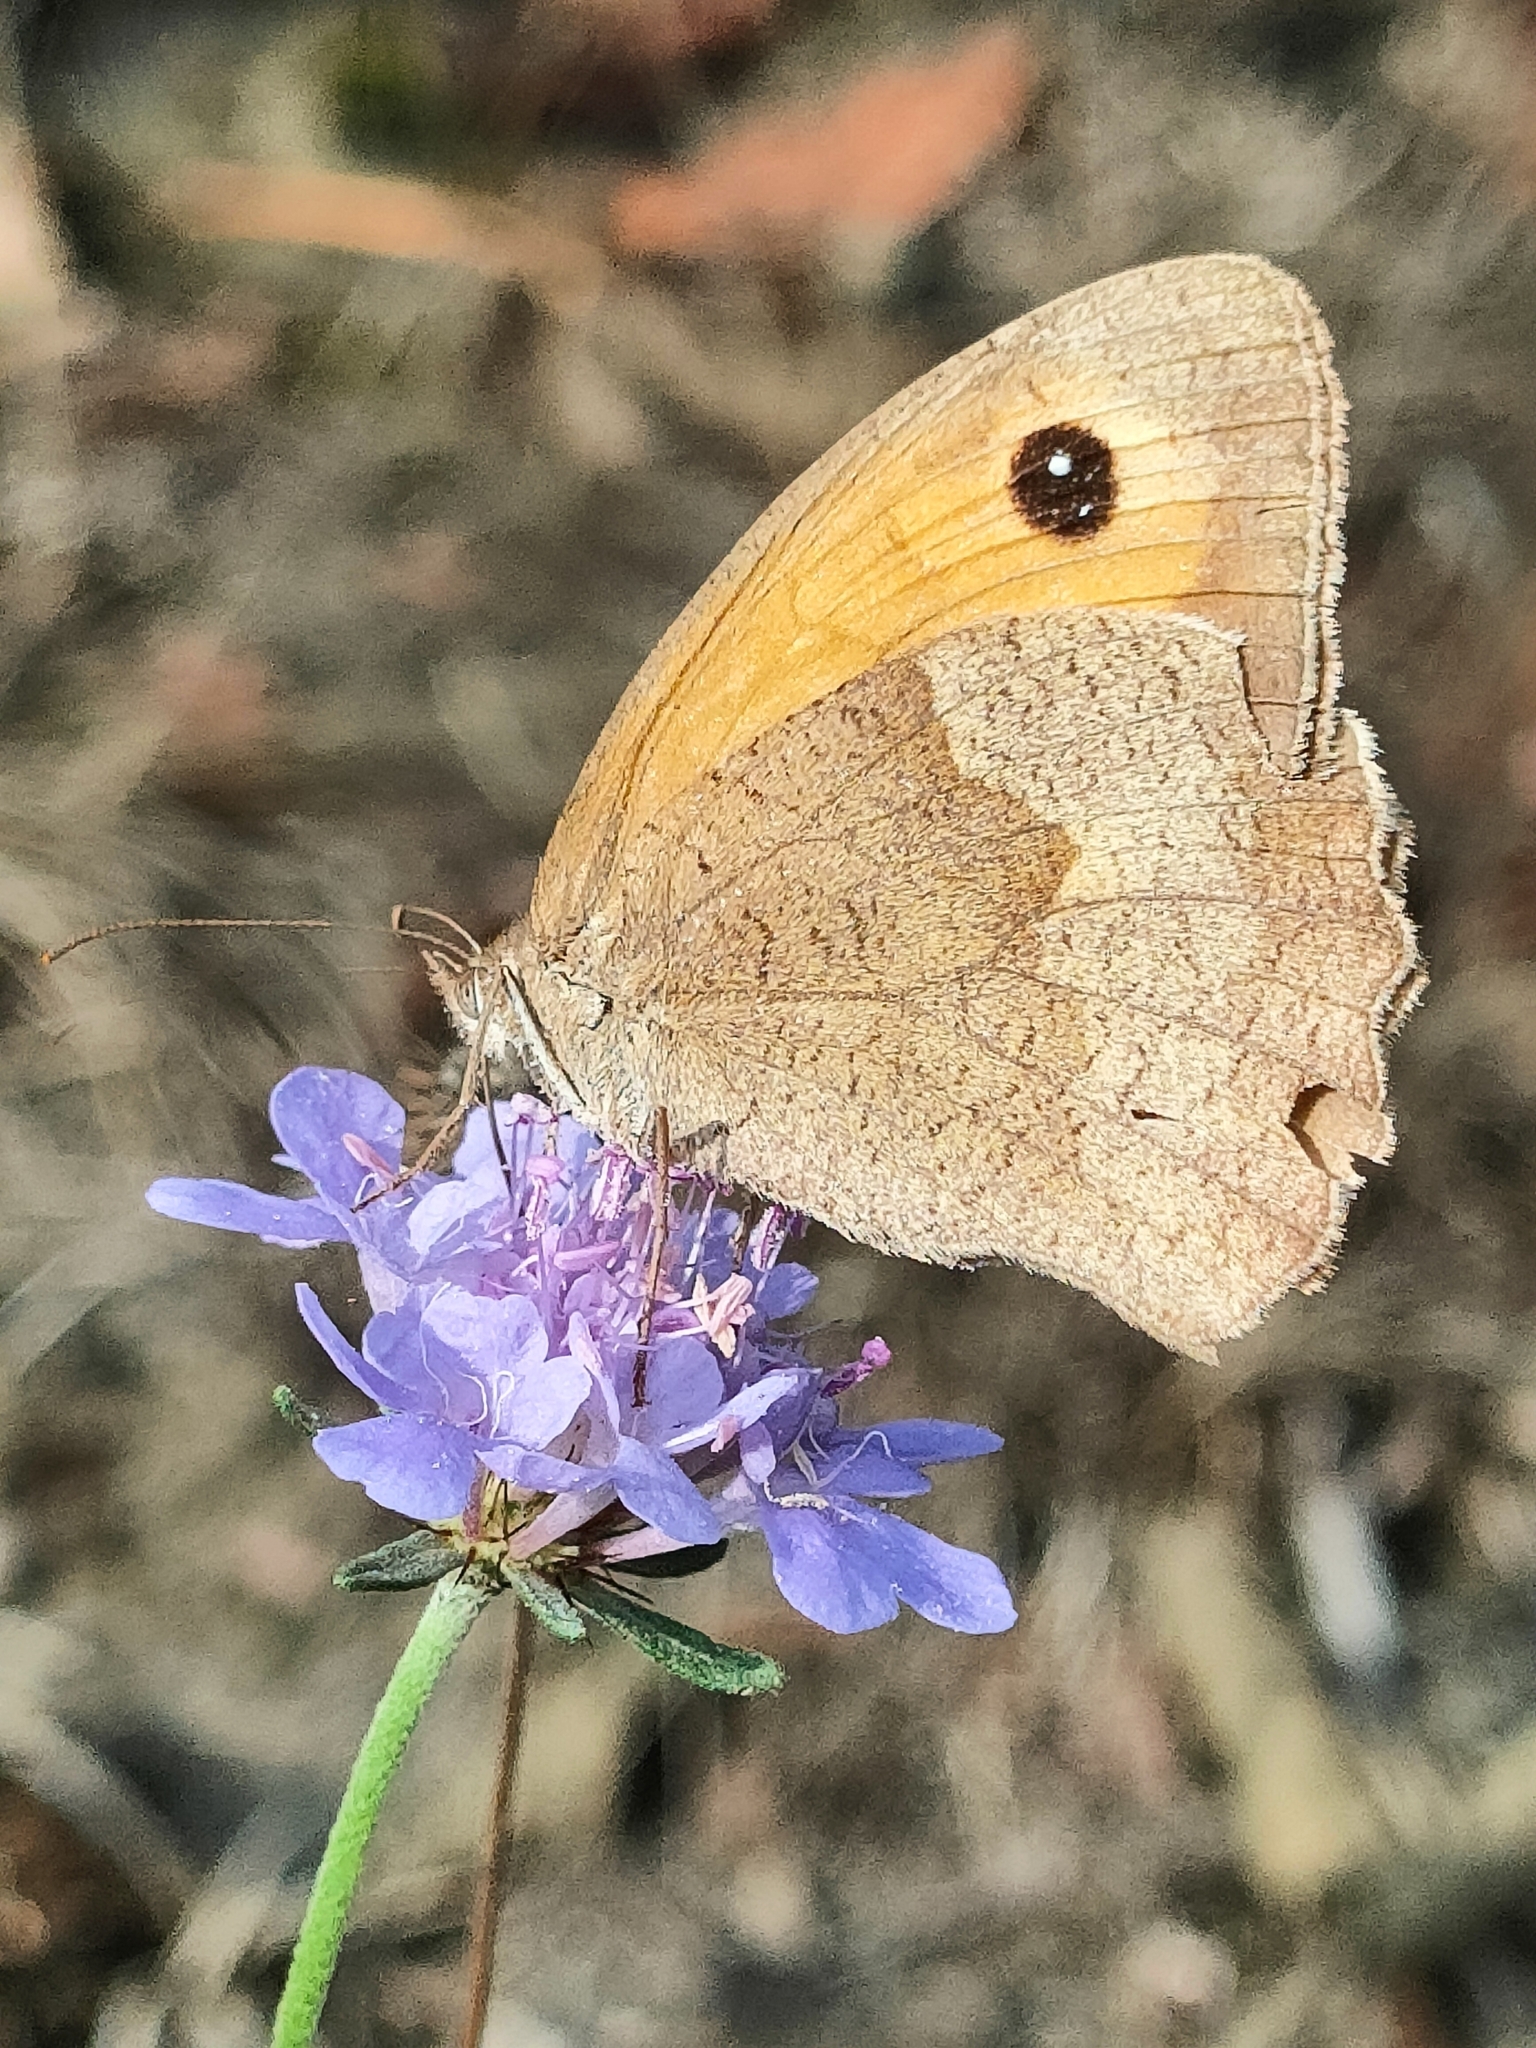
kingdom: Animalia
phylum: Arthropoda
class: Insecta
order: Lepidoptera
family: Nymphalidae
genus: Maniola
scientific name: Maniola jurtina
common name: Meadow brown
